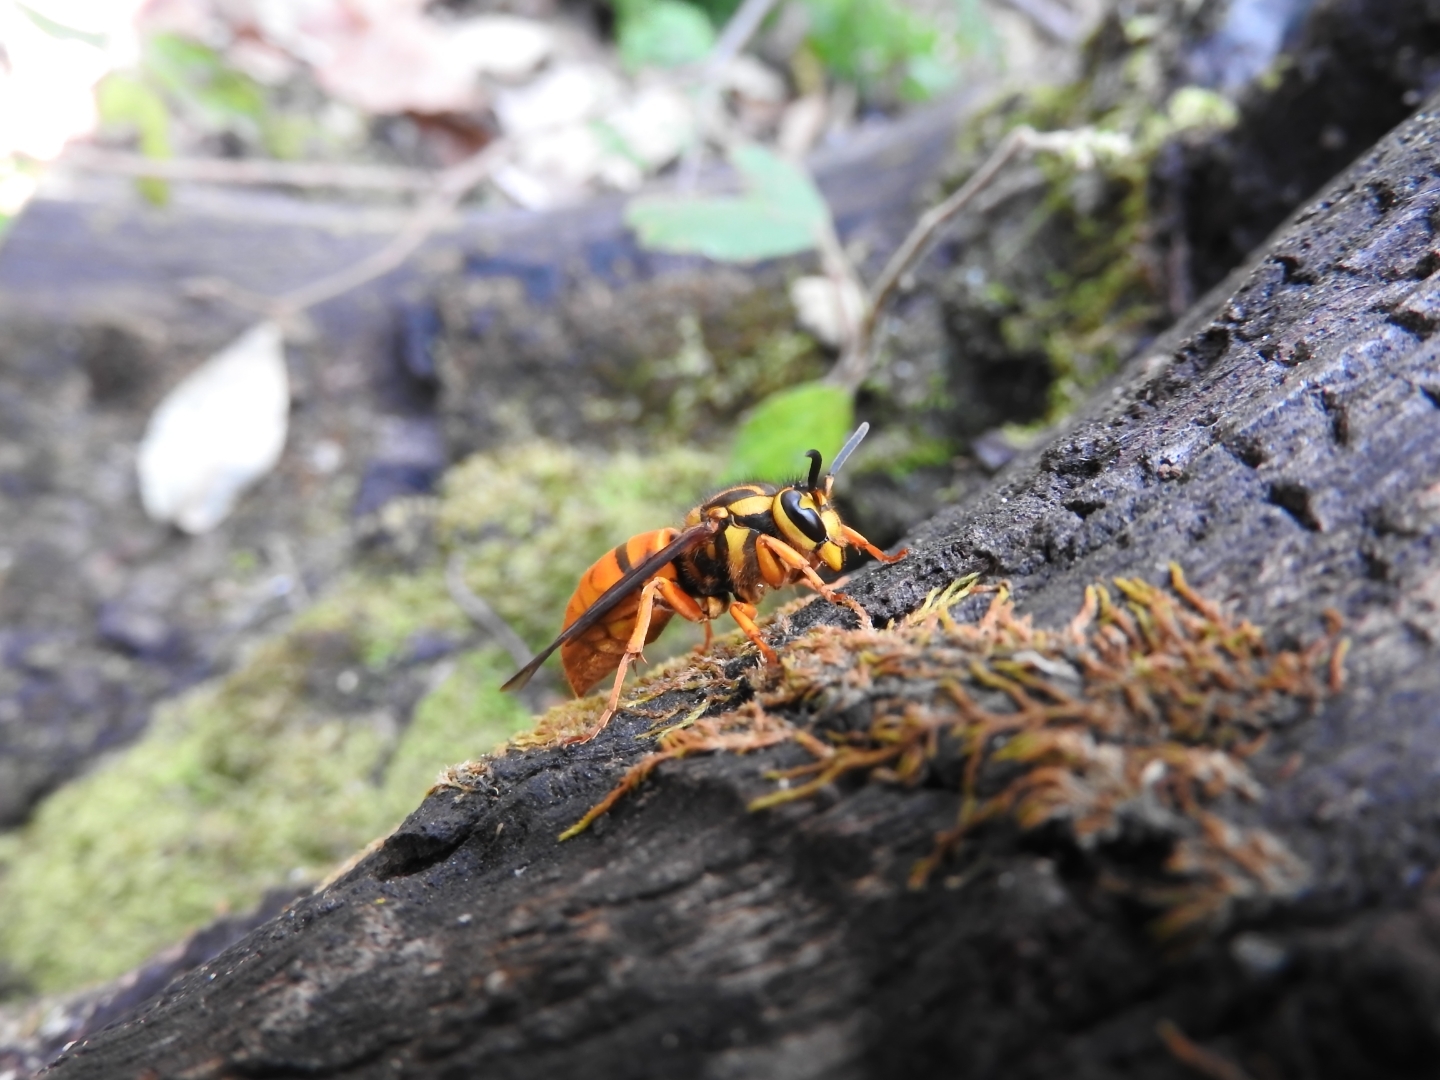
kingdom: Animalia
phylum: Arthropoda
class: Insecta
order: Hymenoptera
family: Vespidae
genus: Vespula
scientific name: Vespula squamosa
